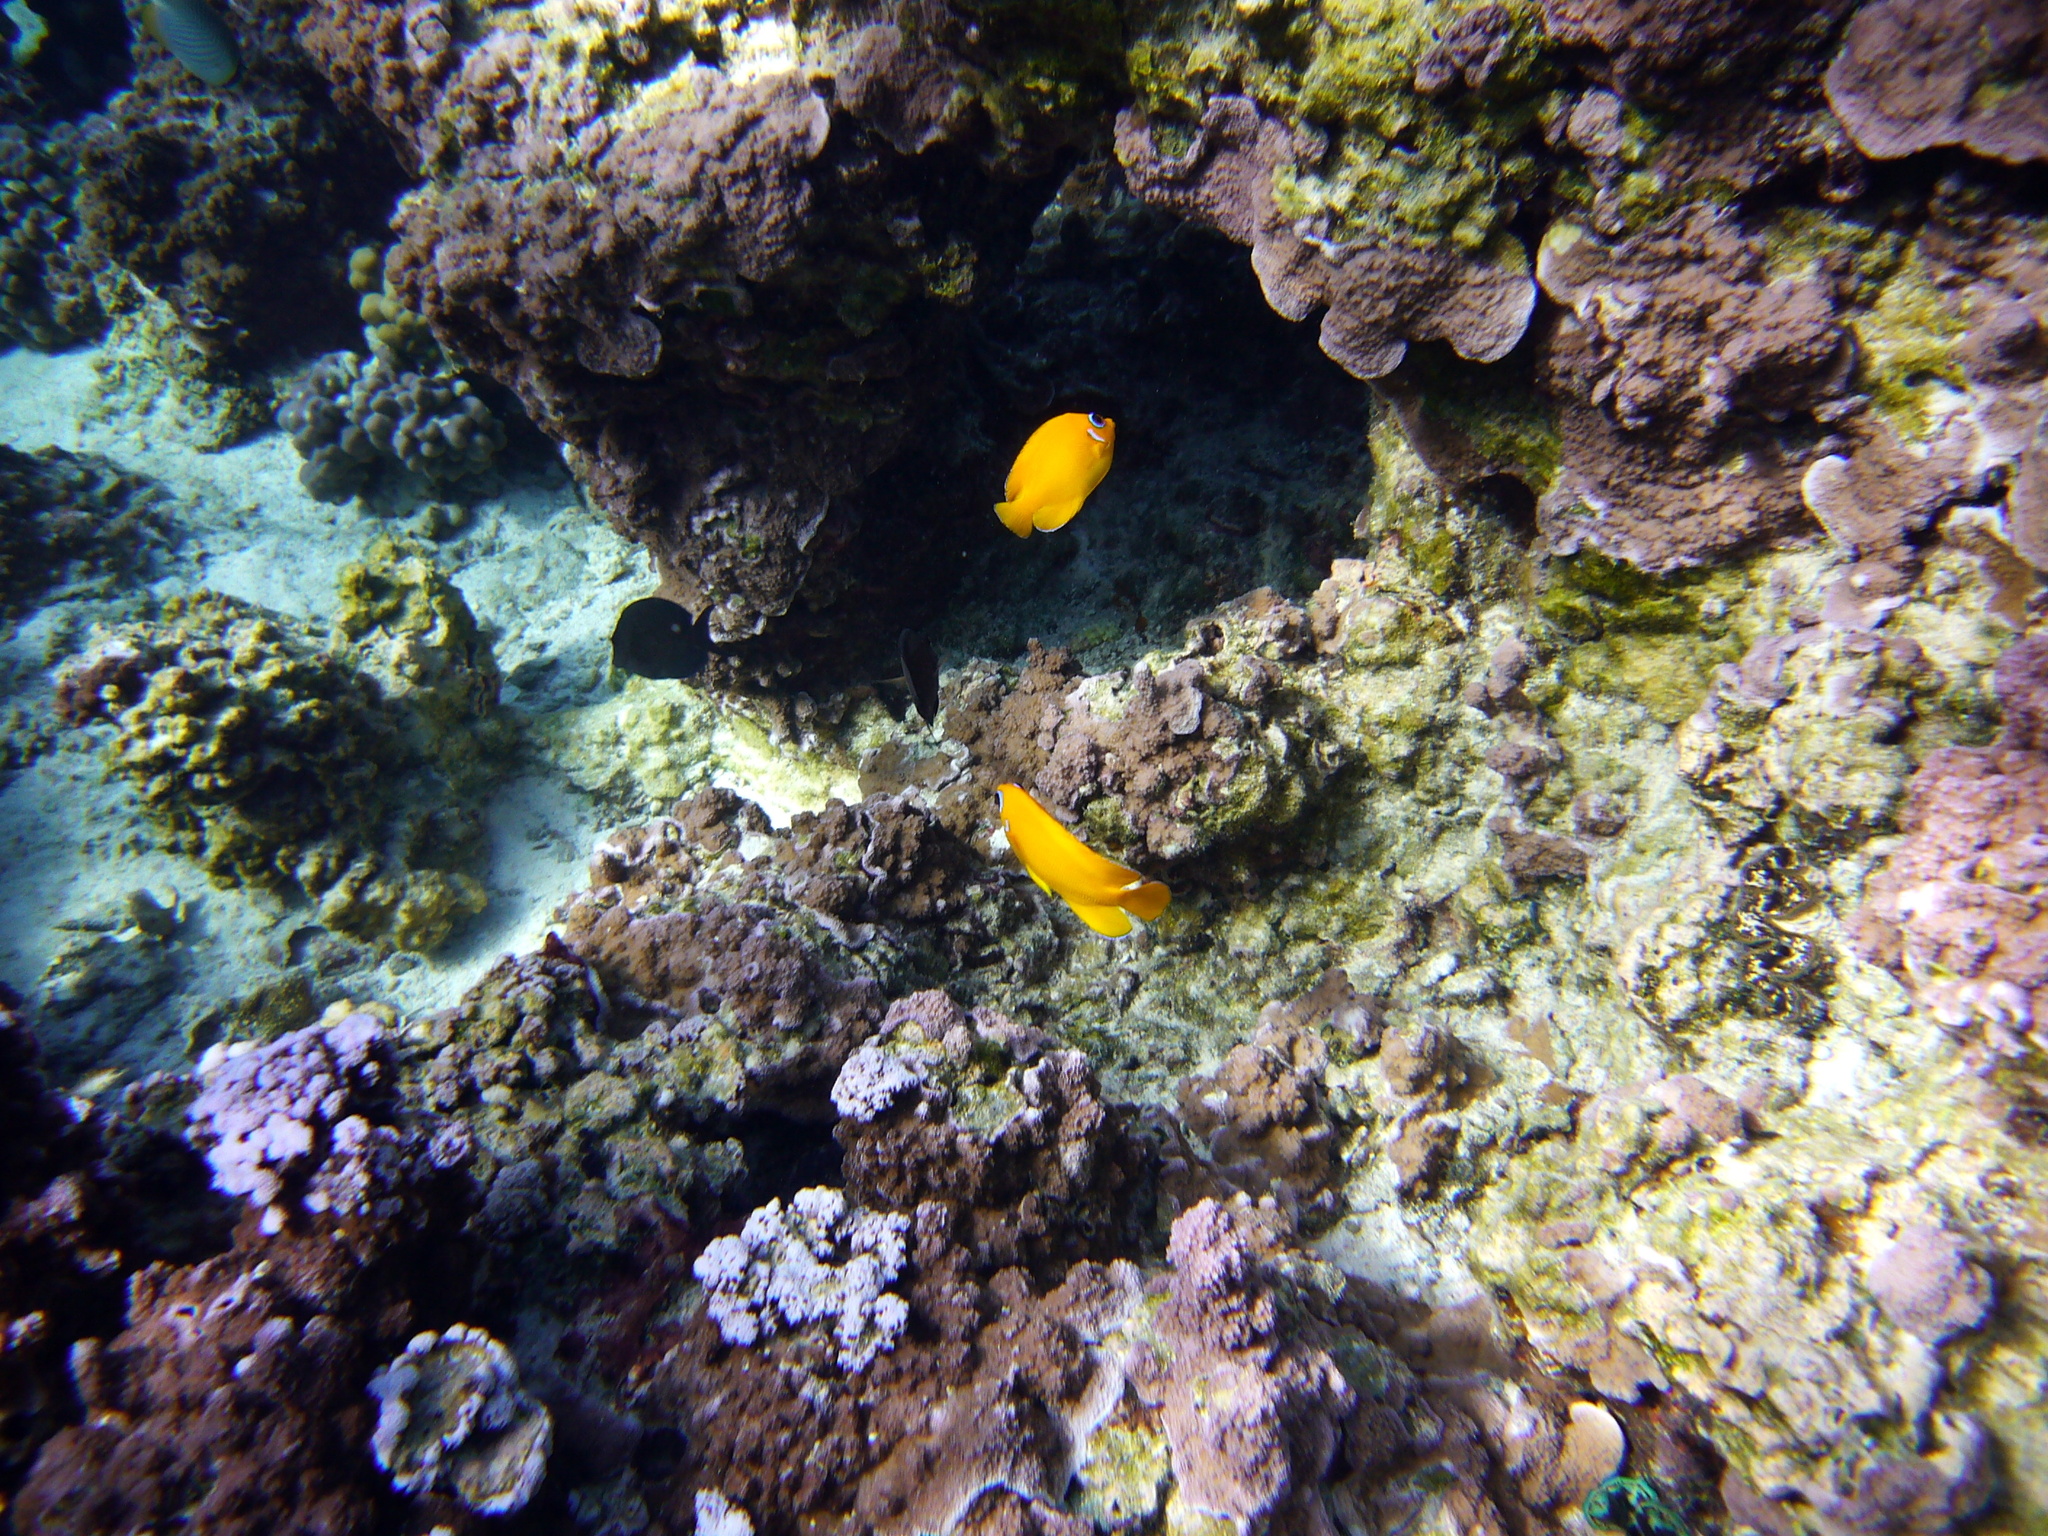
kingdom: Animalia
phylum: Chordata
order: Perciformes
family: Pomacanthidae
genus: Centropyge
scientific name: Centropyge flavissima
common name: Lemonpeel angelfish
